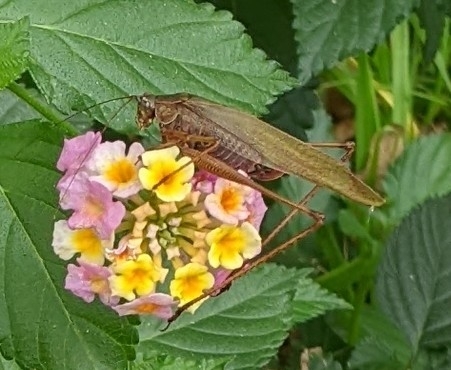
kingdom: Animalia
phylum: Arthropoda
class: Insecta
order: Orthoptera
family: Tettigoniidae
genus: Scudderia
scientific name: Scudderia furcata
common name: Fork-tailed bush katydid
